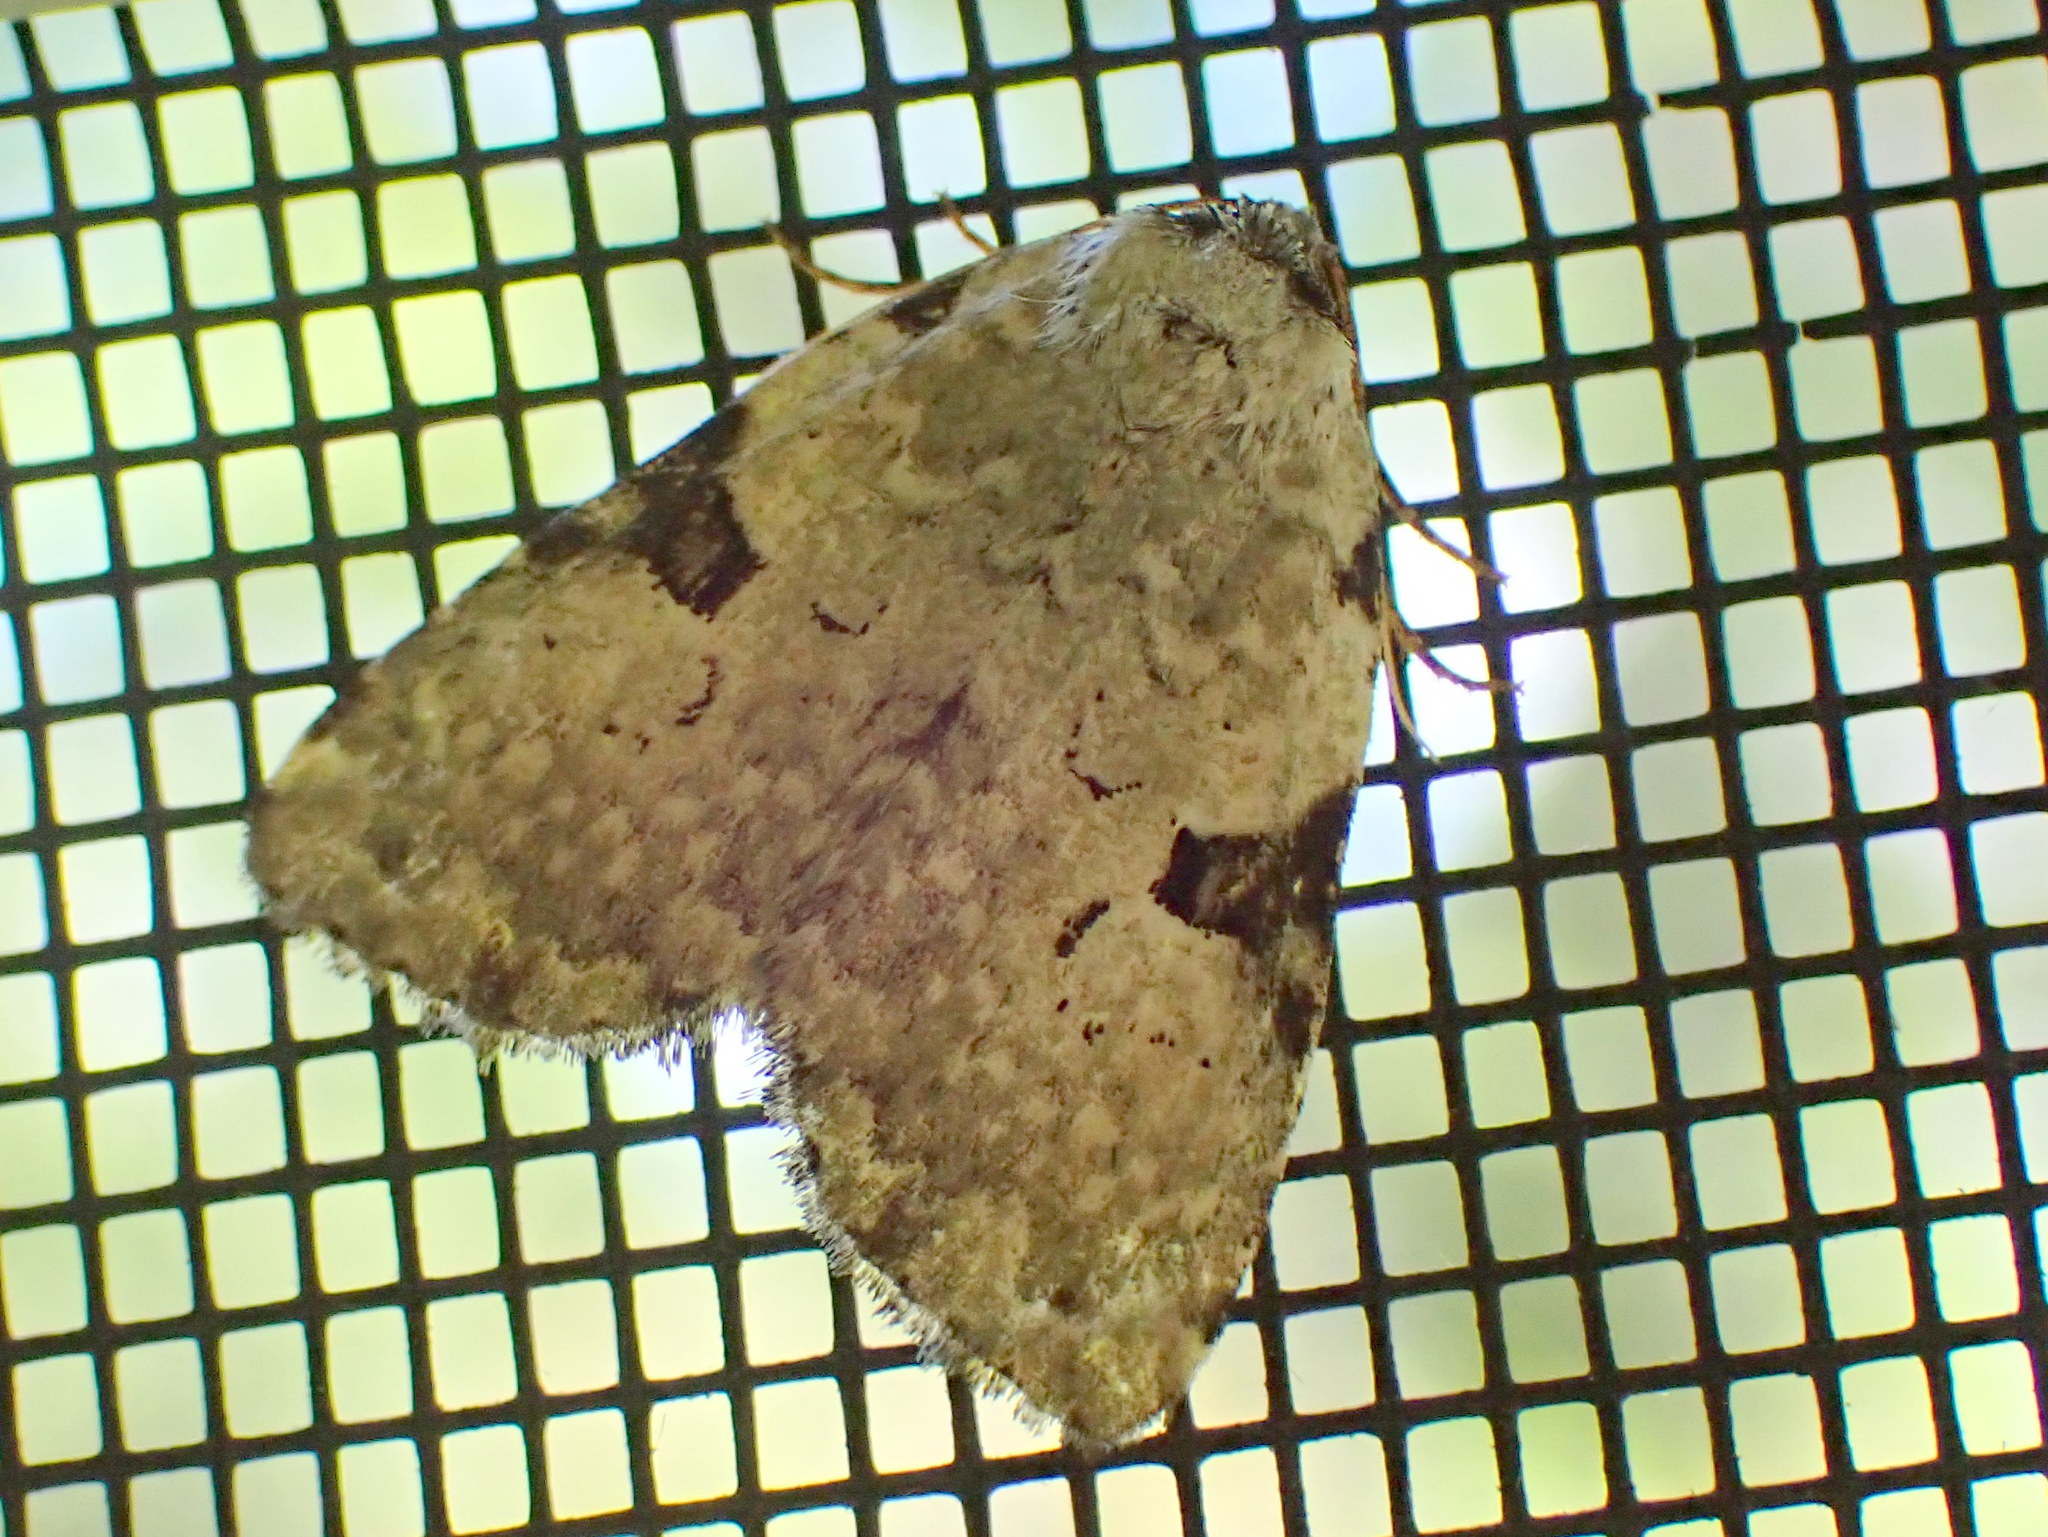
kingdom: Animalia
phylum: Arthropoda
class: Insecta
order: Lepidoptera
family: Noctuidae
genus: Leuconycta
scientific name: Leuconycta diphteroides
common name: Green leuconycta moth
